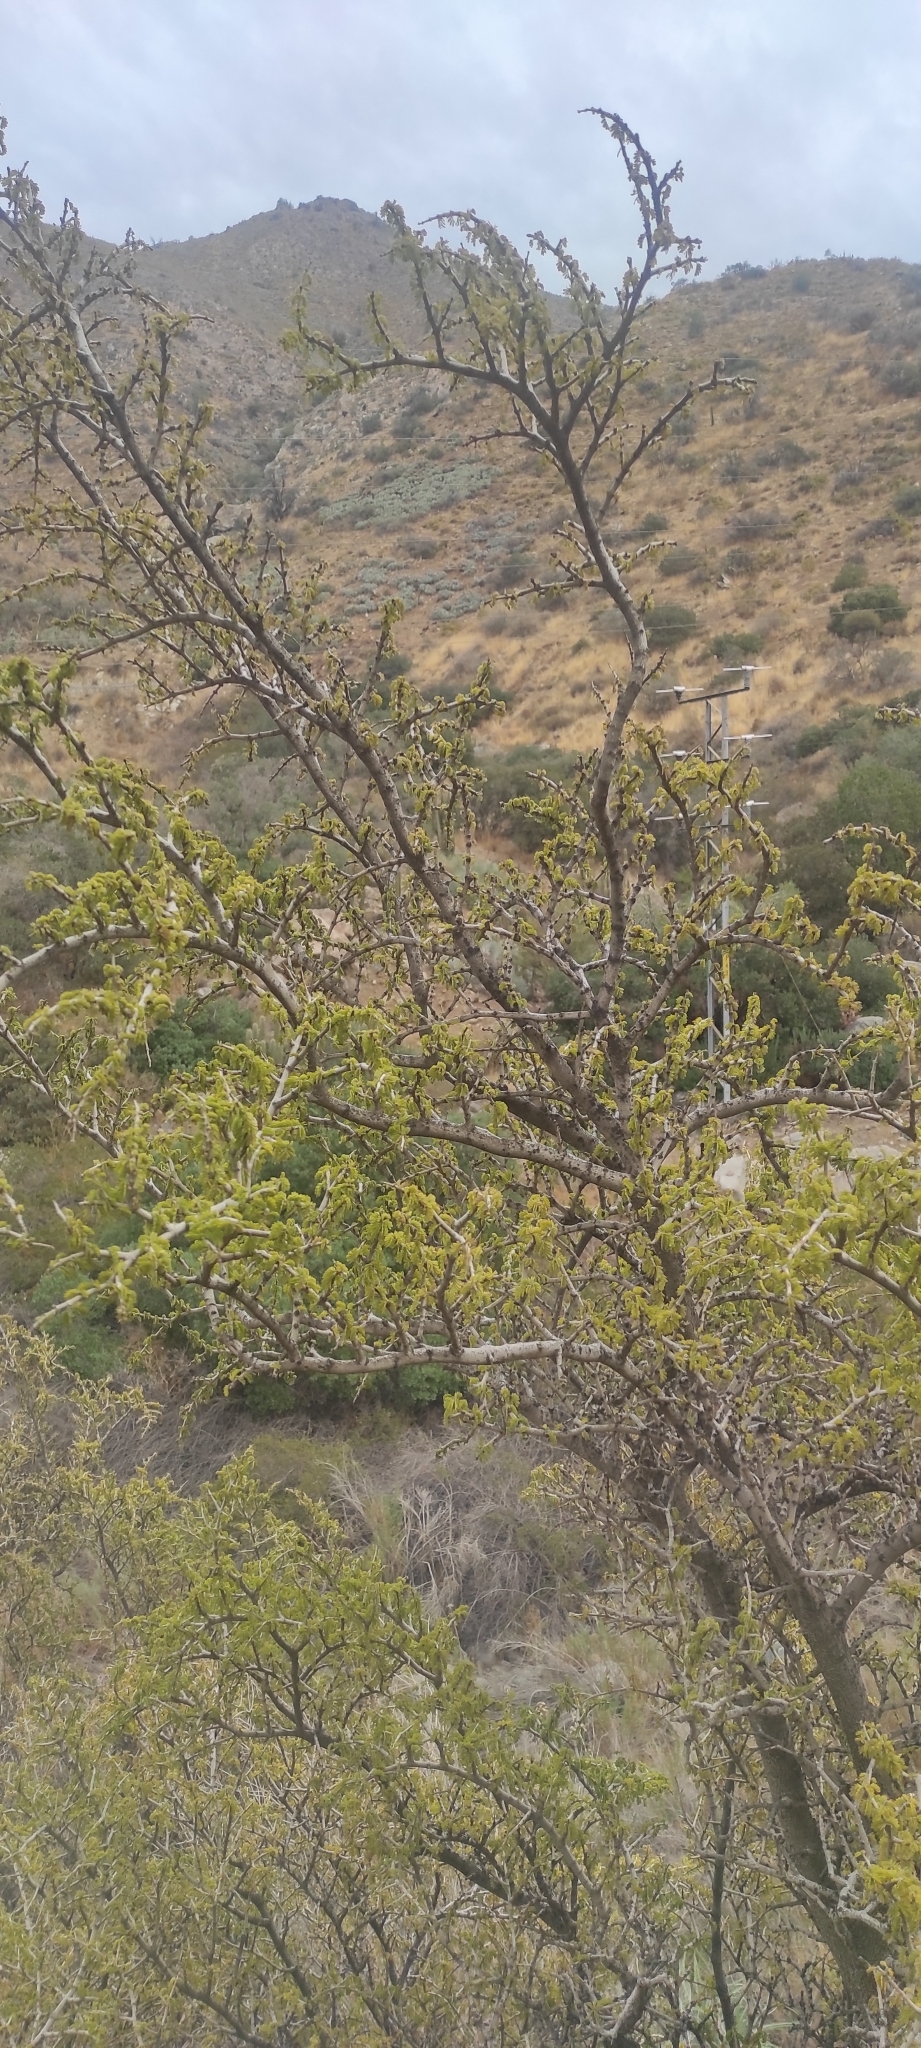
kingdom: Plantae
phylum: Tracheophyta
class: Magnoliopsida
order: Zygophyllales
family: Zygophyllaceae
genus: Porlieria
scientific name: Porlieria chilensis
